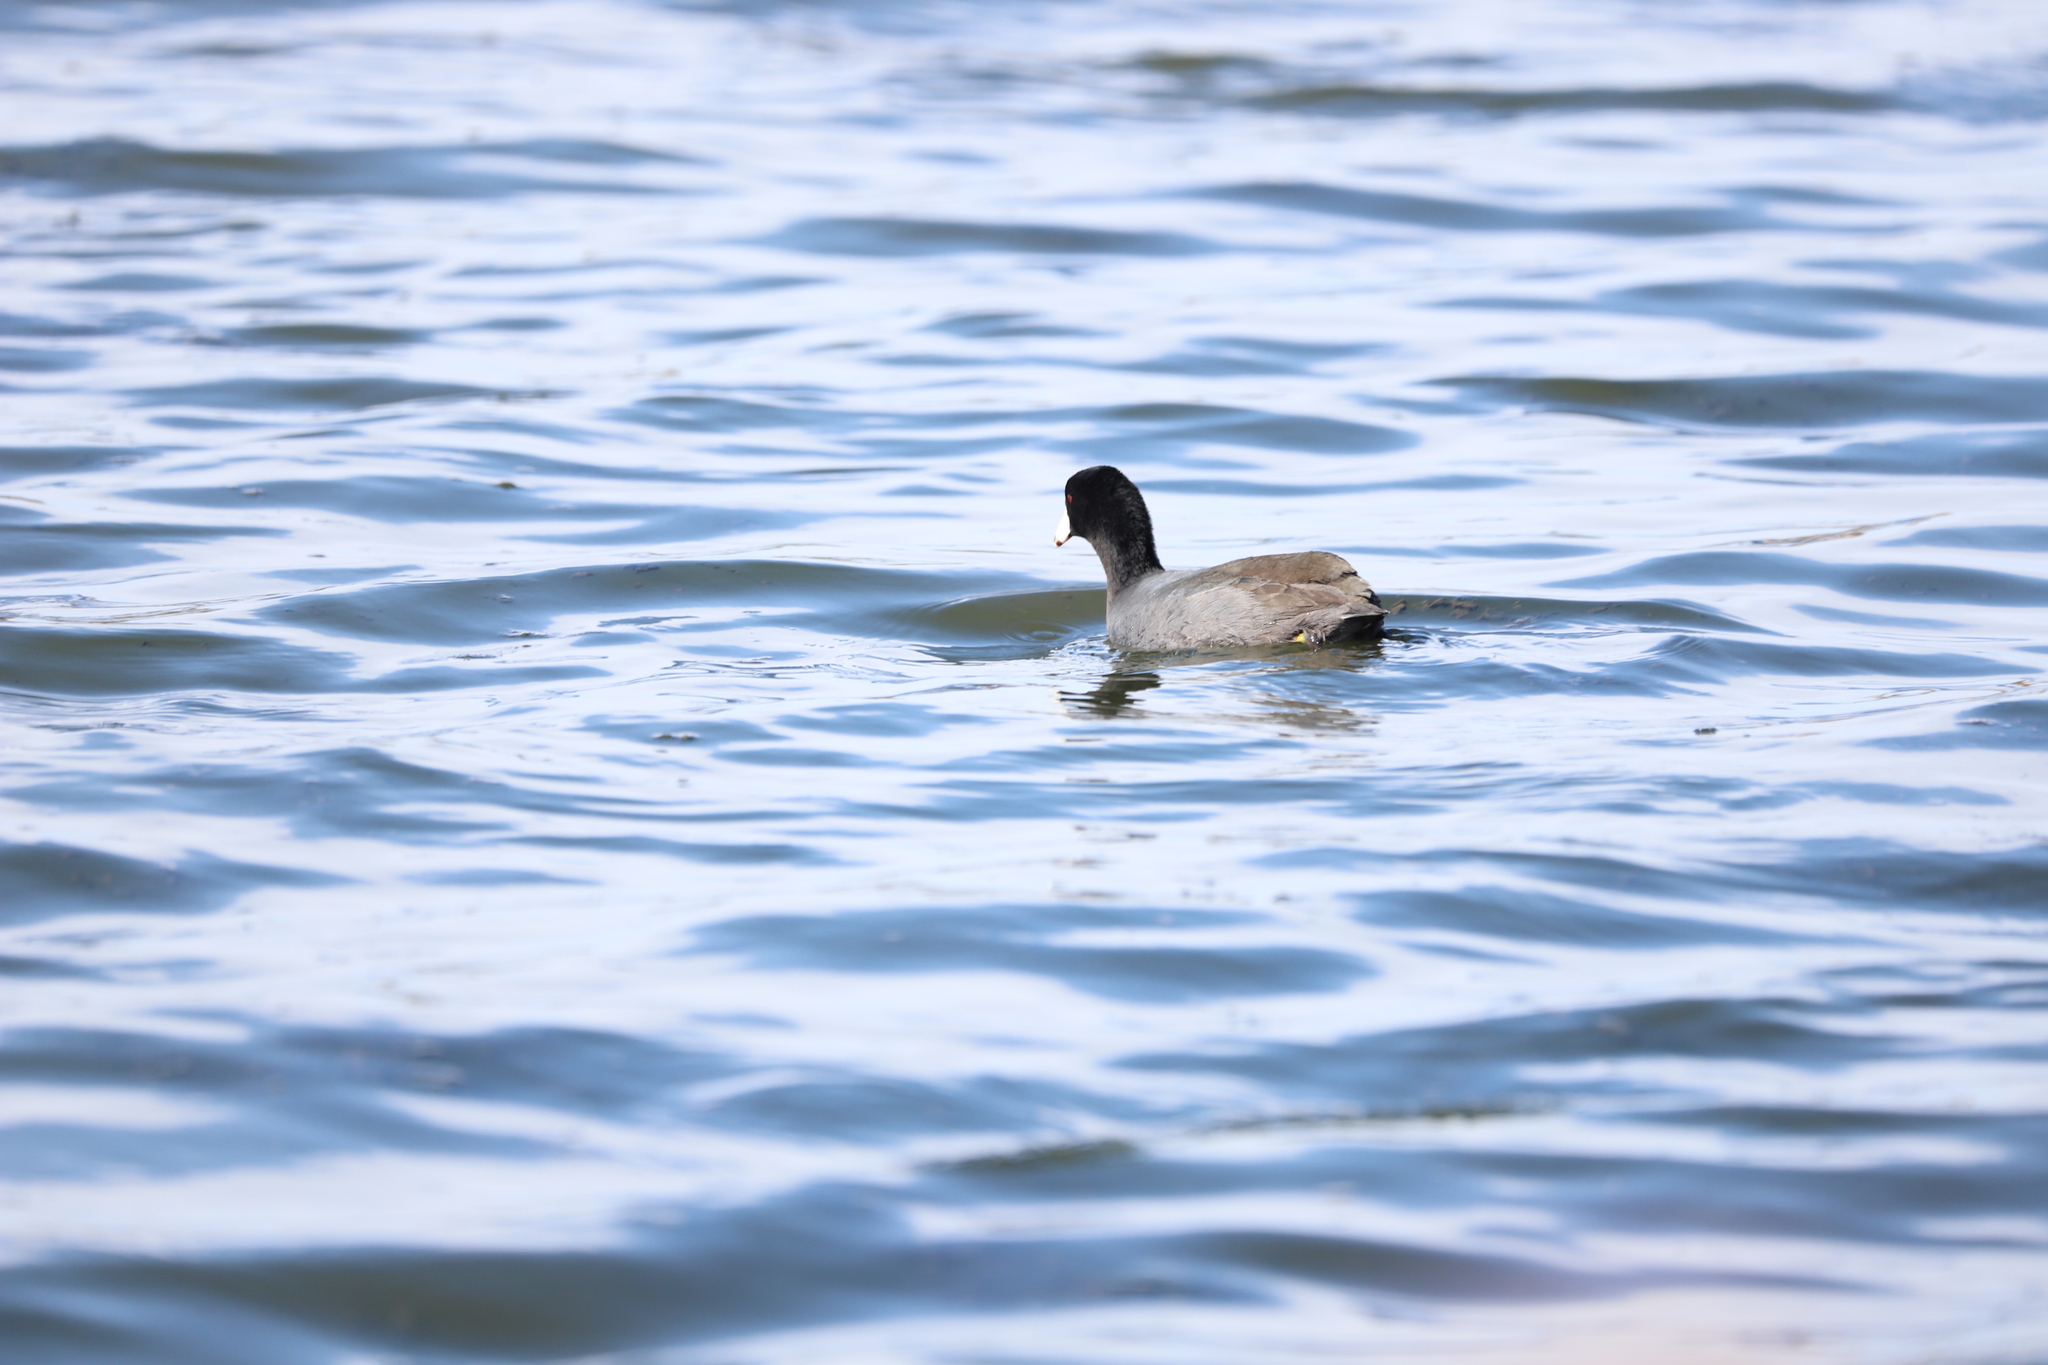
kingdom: Animalia
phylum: Chordata
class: Aves
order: Gruiformes
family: Rallidae
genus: Fulica
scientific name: Fulica americana
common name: American coot
